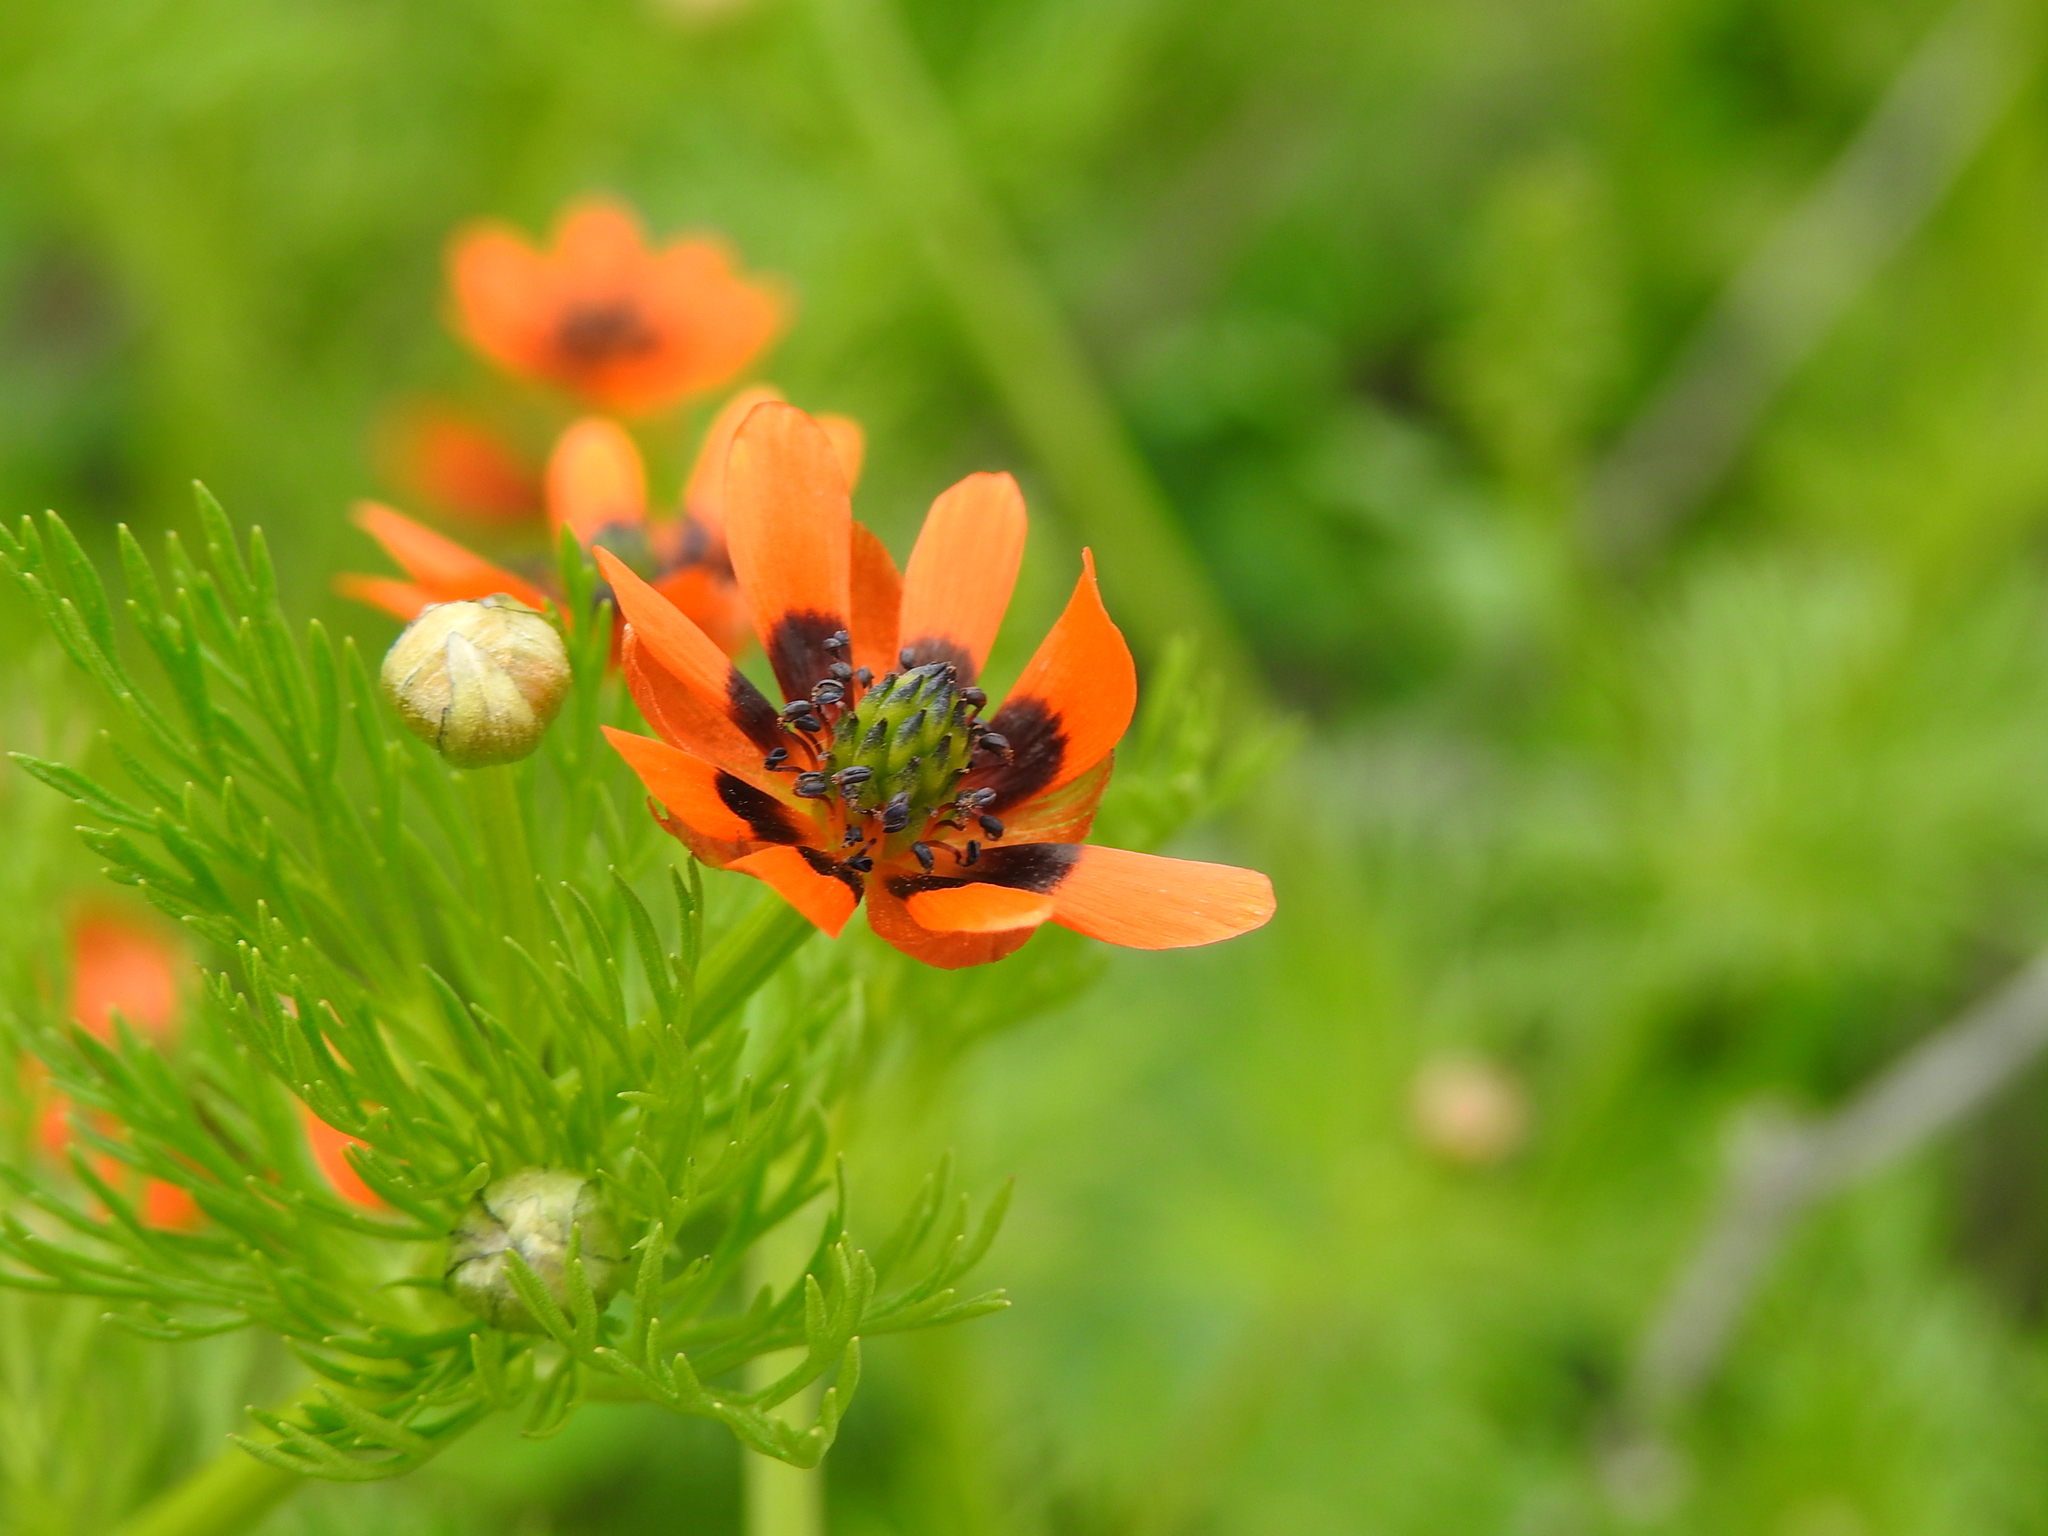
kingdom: Plantae
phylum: Tracheophyta
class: Magnoliopsida
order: Ranunculales
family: Ranunculaceae
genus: Adonis
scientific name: Adonis aestivalis
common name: Summer pheasant's-eye
